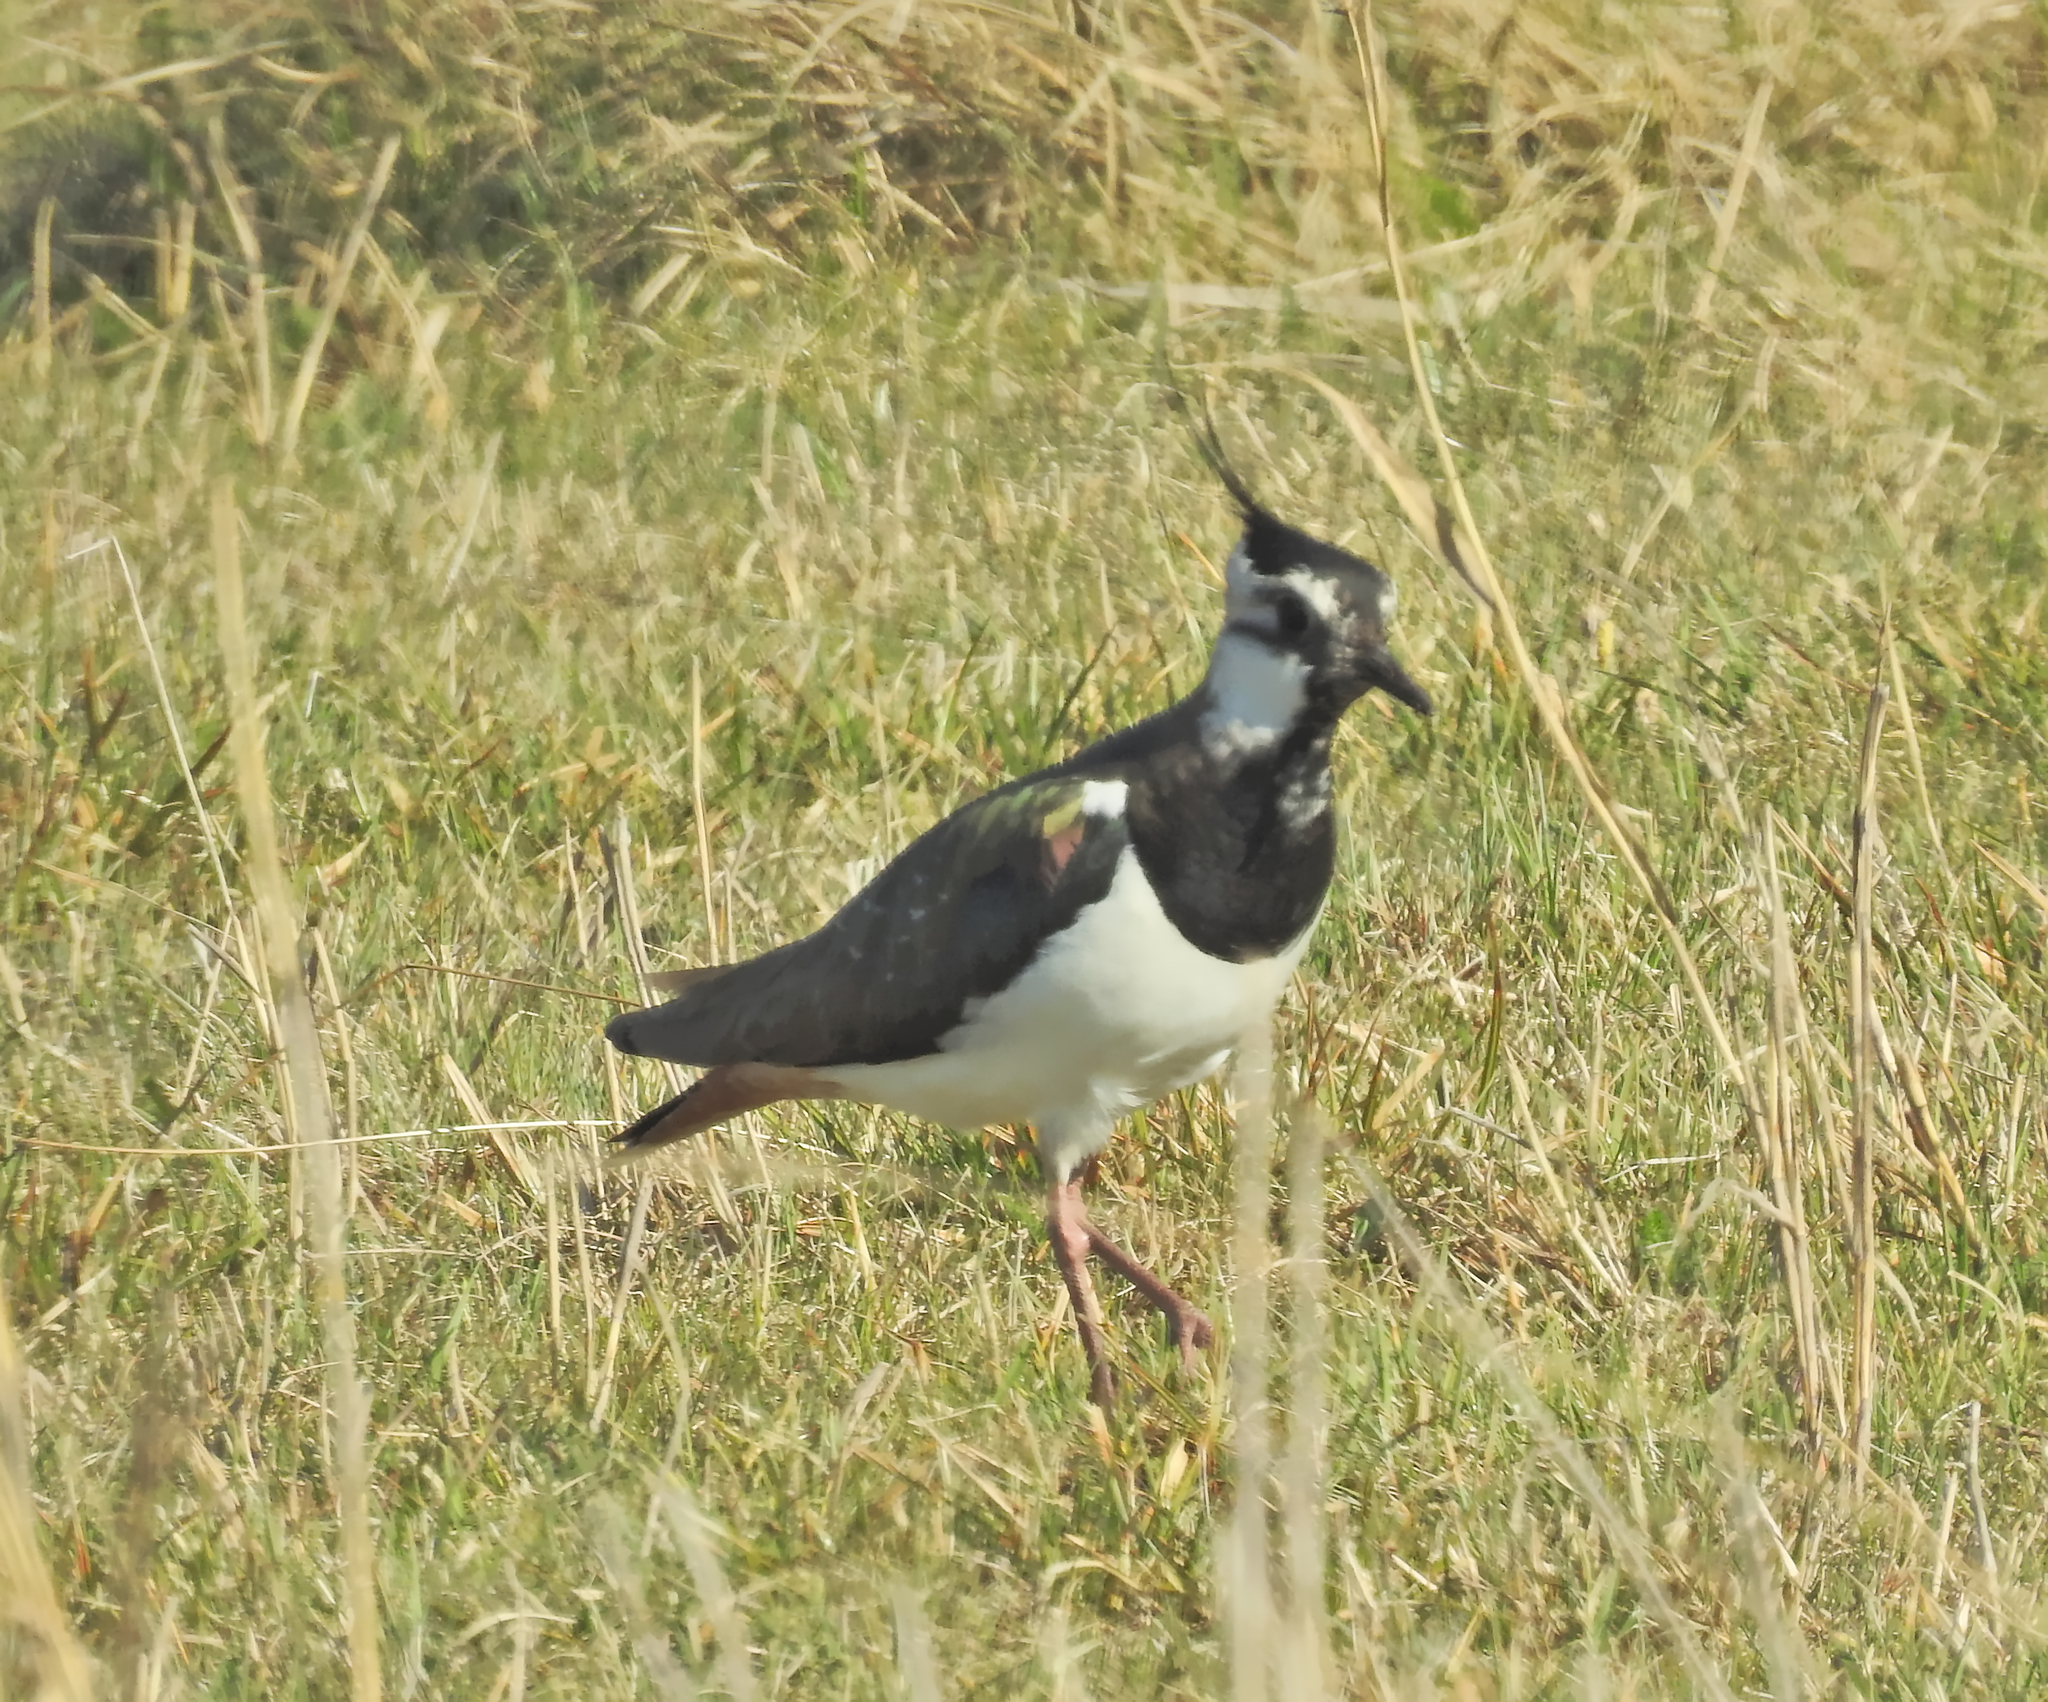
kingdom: Animalia
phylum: Chordata
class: Aves
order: Charadriiformes
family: Charadriidae
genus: Vanellus
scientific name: Vanellus vanellus
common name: Northern lapwing
